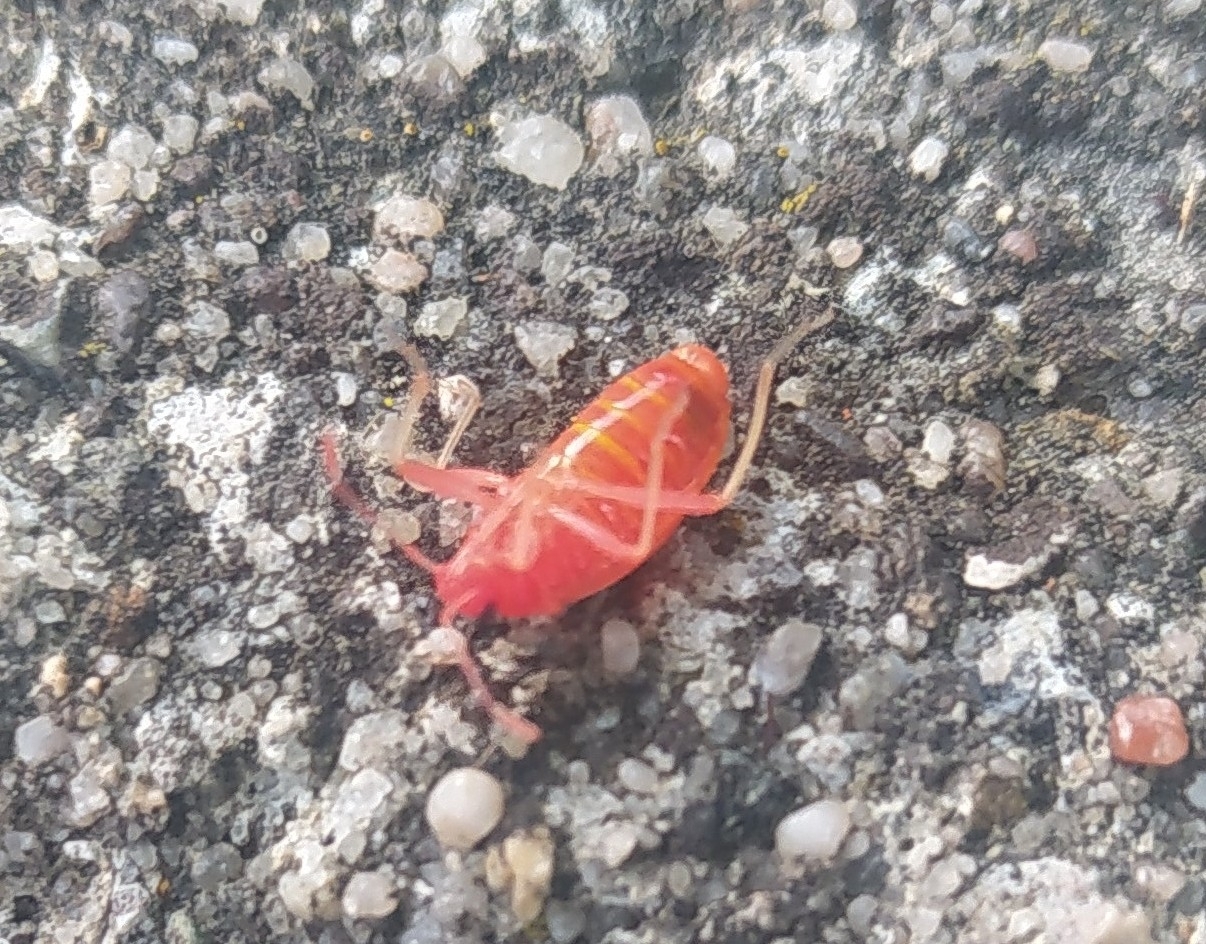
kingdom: Animalia
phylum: Arthropoda
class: Insecta
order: Hemiptera
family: Pyrrhocoridae
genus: Pyrrhocoris
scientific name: Pyrrhocoris apterus
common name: Firebug
